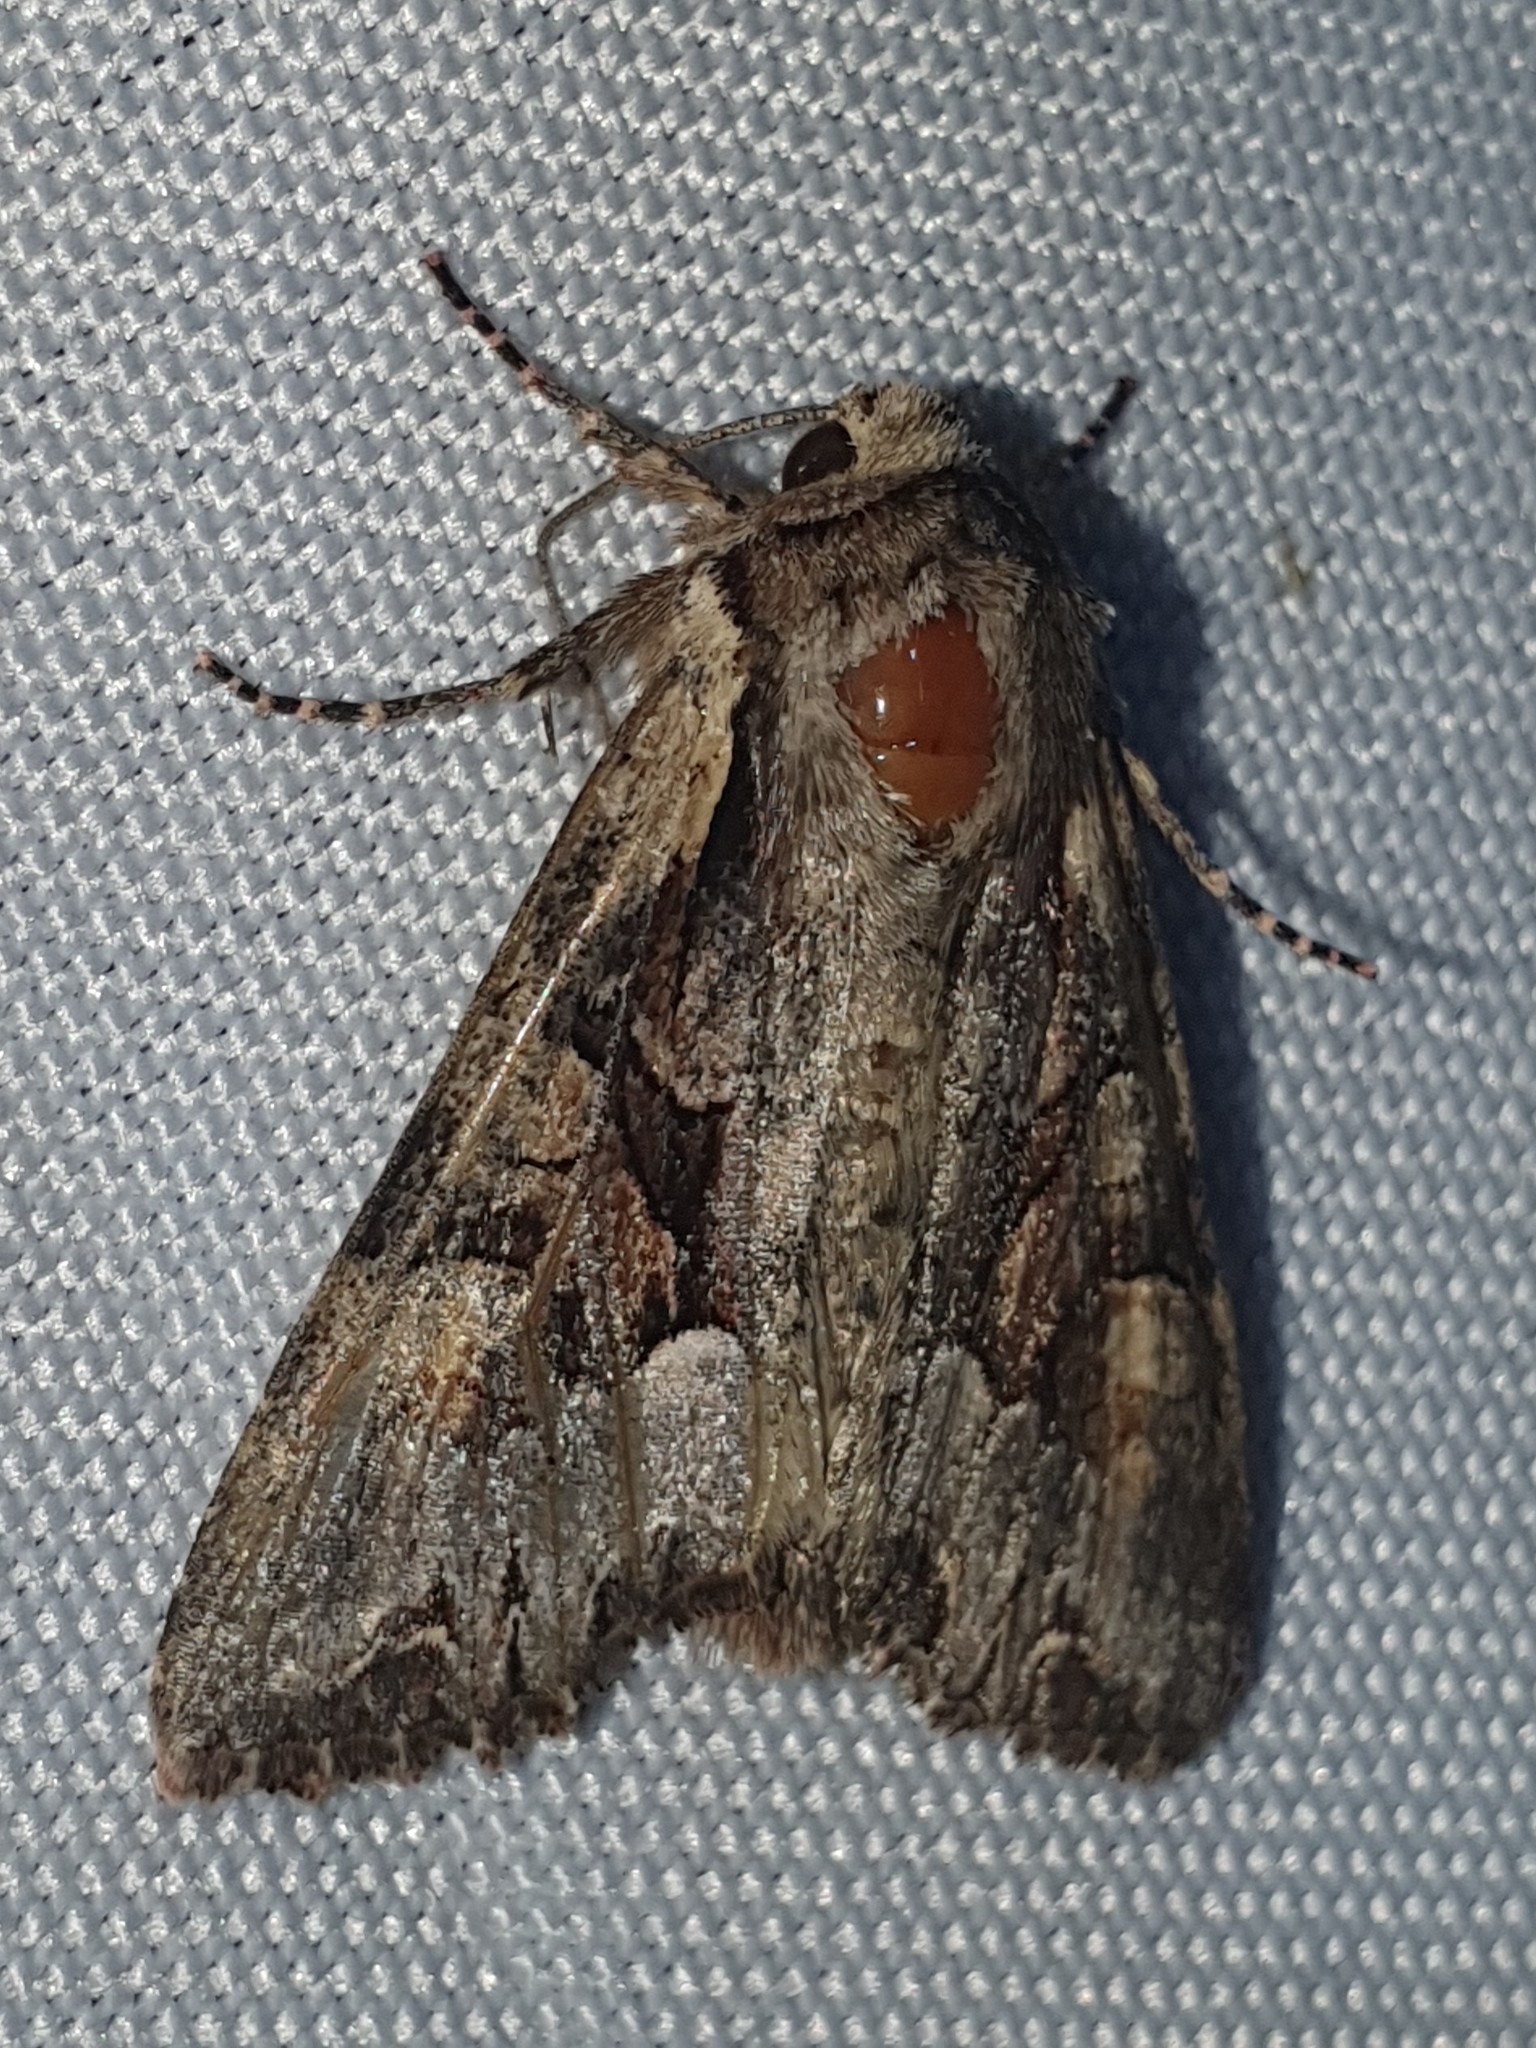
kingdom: Animalia
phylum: Arthropoda
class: Insecta
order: Lepidoptera
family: Noctuidae
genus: Lacanobia
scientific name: Lacanobia w-latinum
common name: Light brocade
